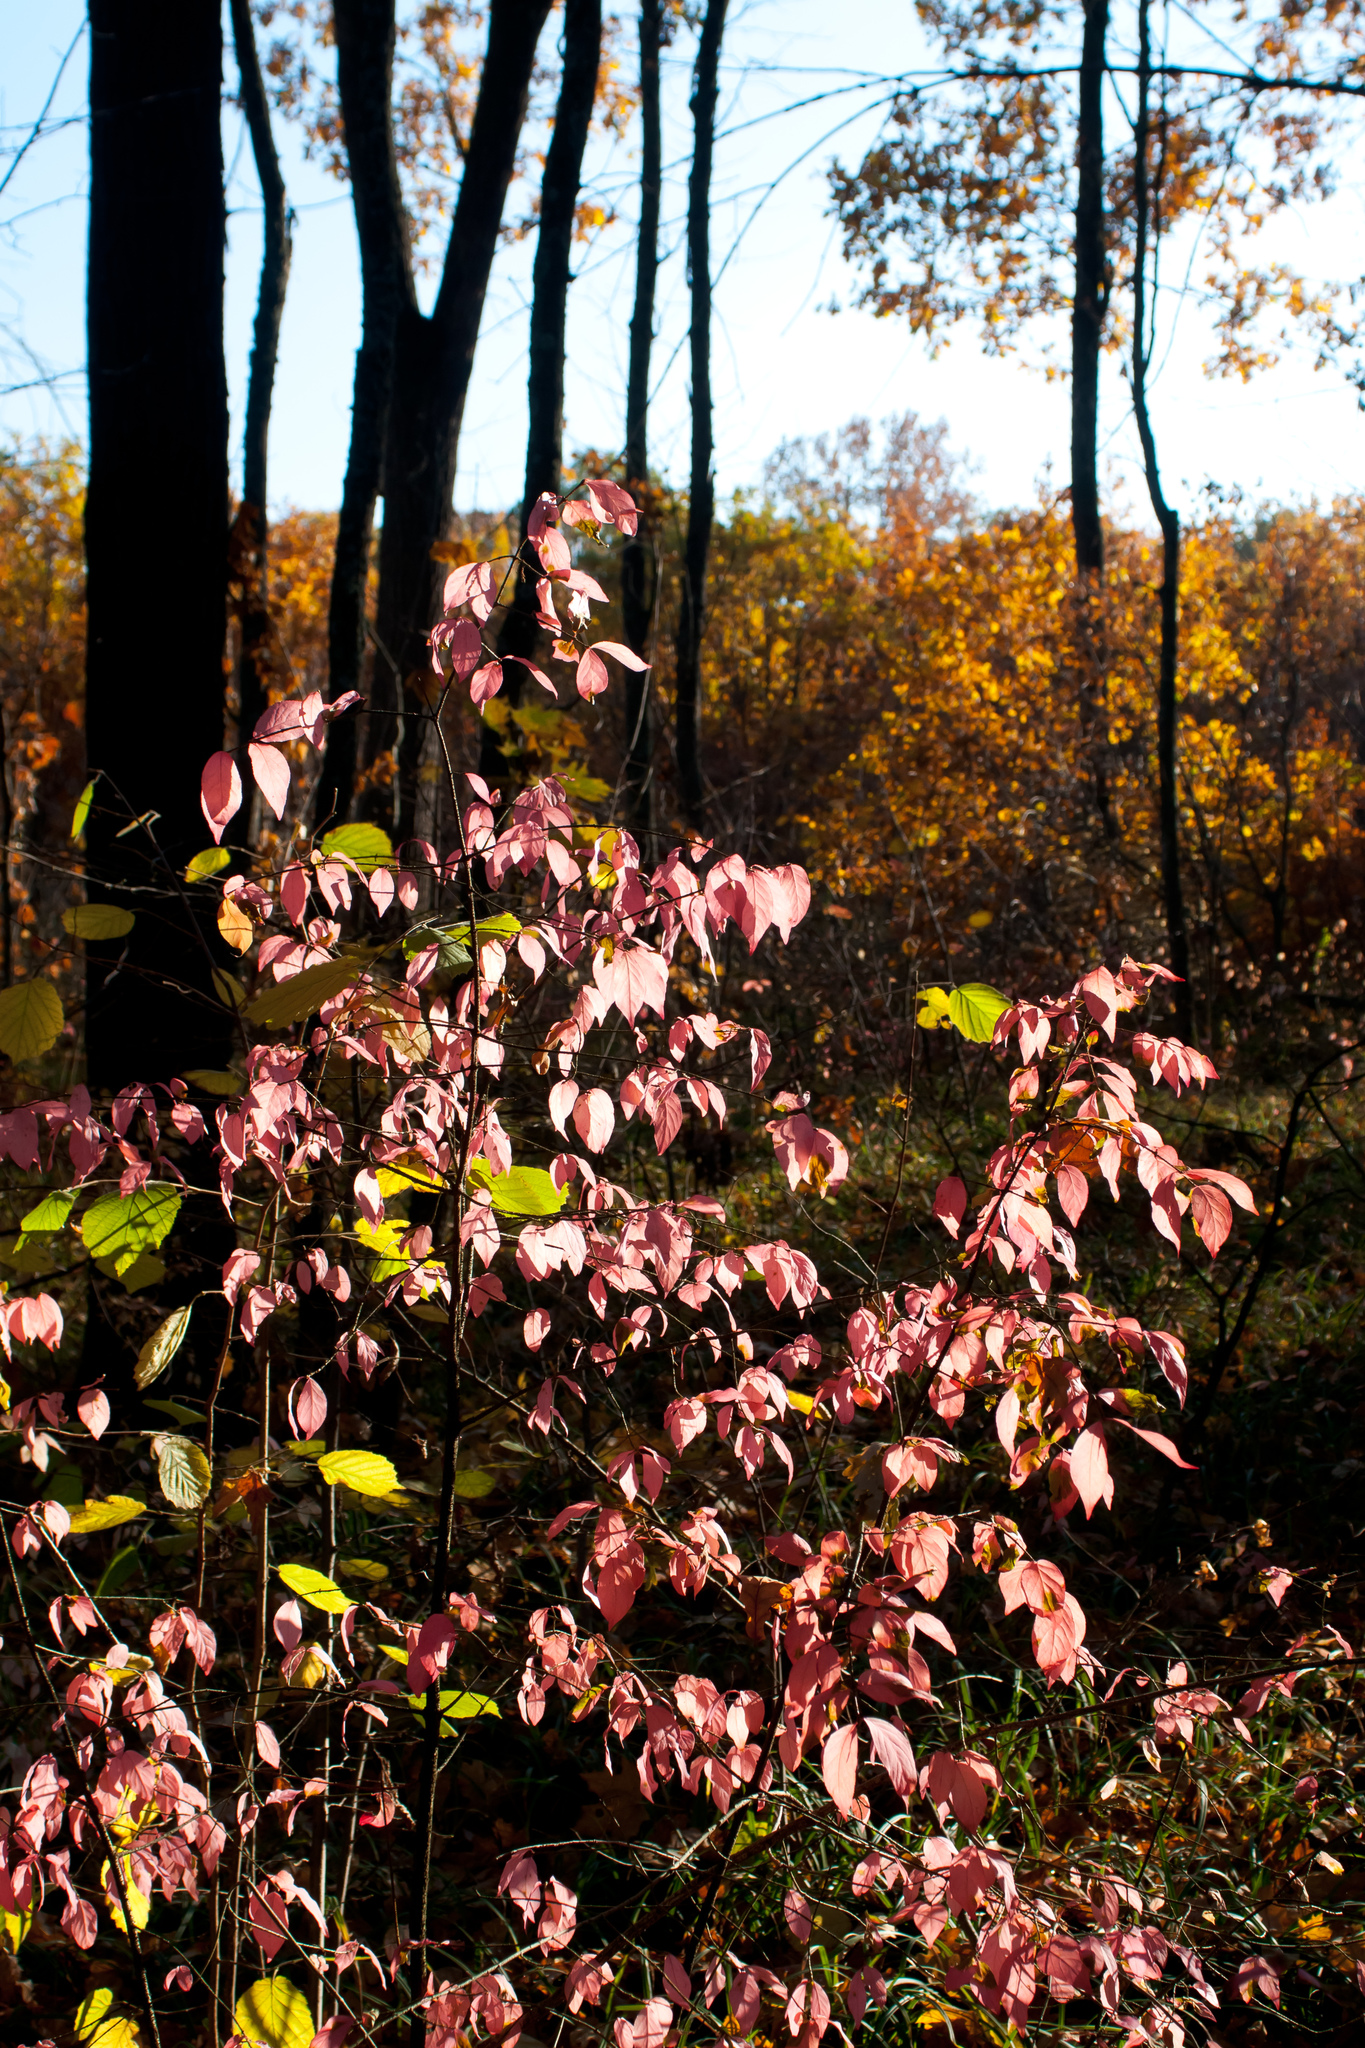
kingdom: Plantae
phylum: Tracheophyta
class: Magnoliopsida
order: Celastrales
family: Celastraceae
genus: Euonymus
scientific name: Euonymus verrucosus
